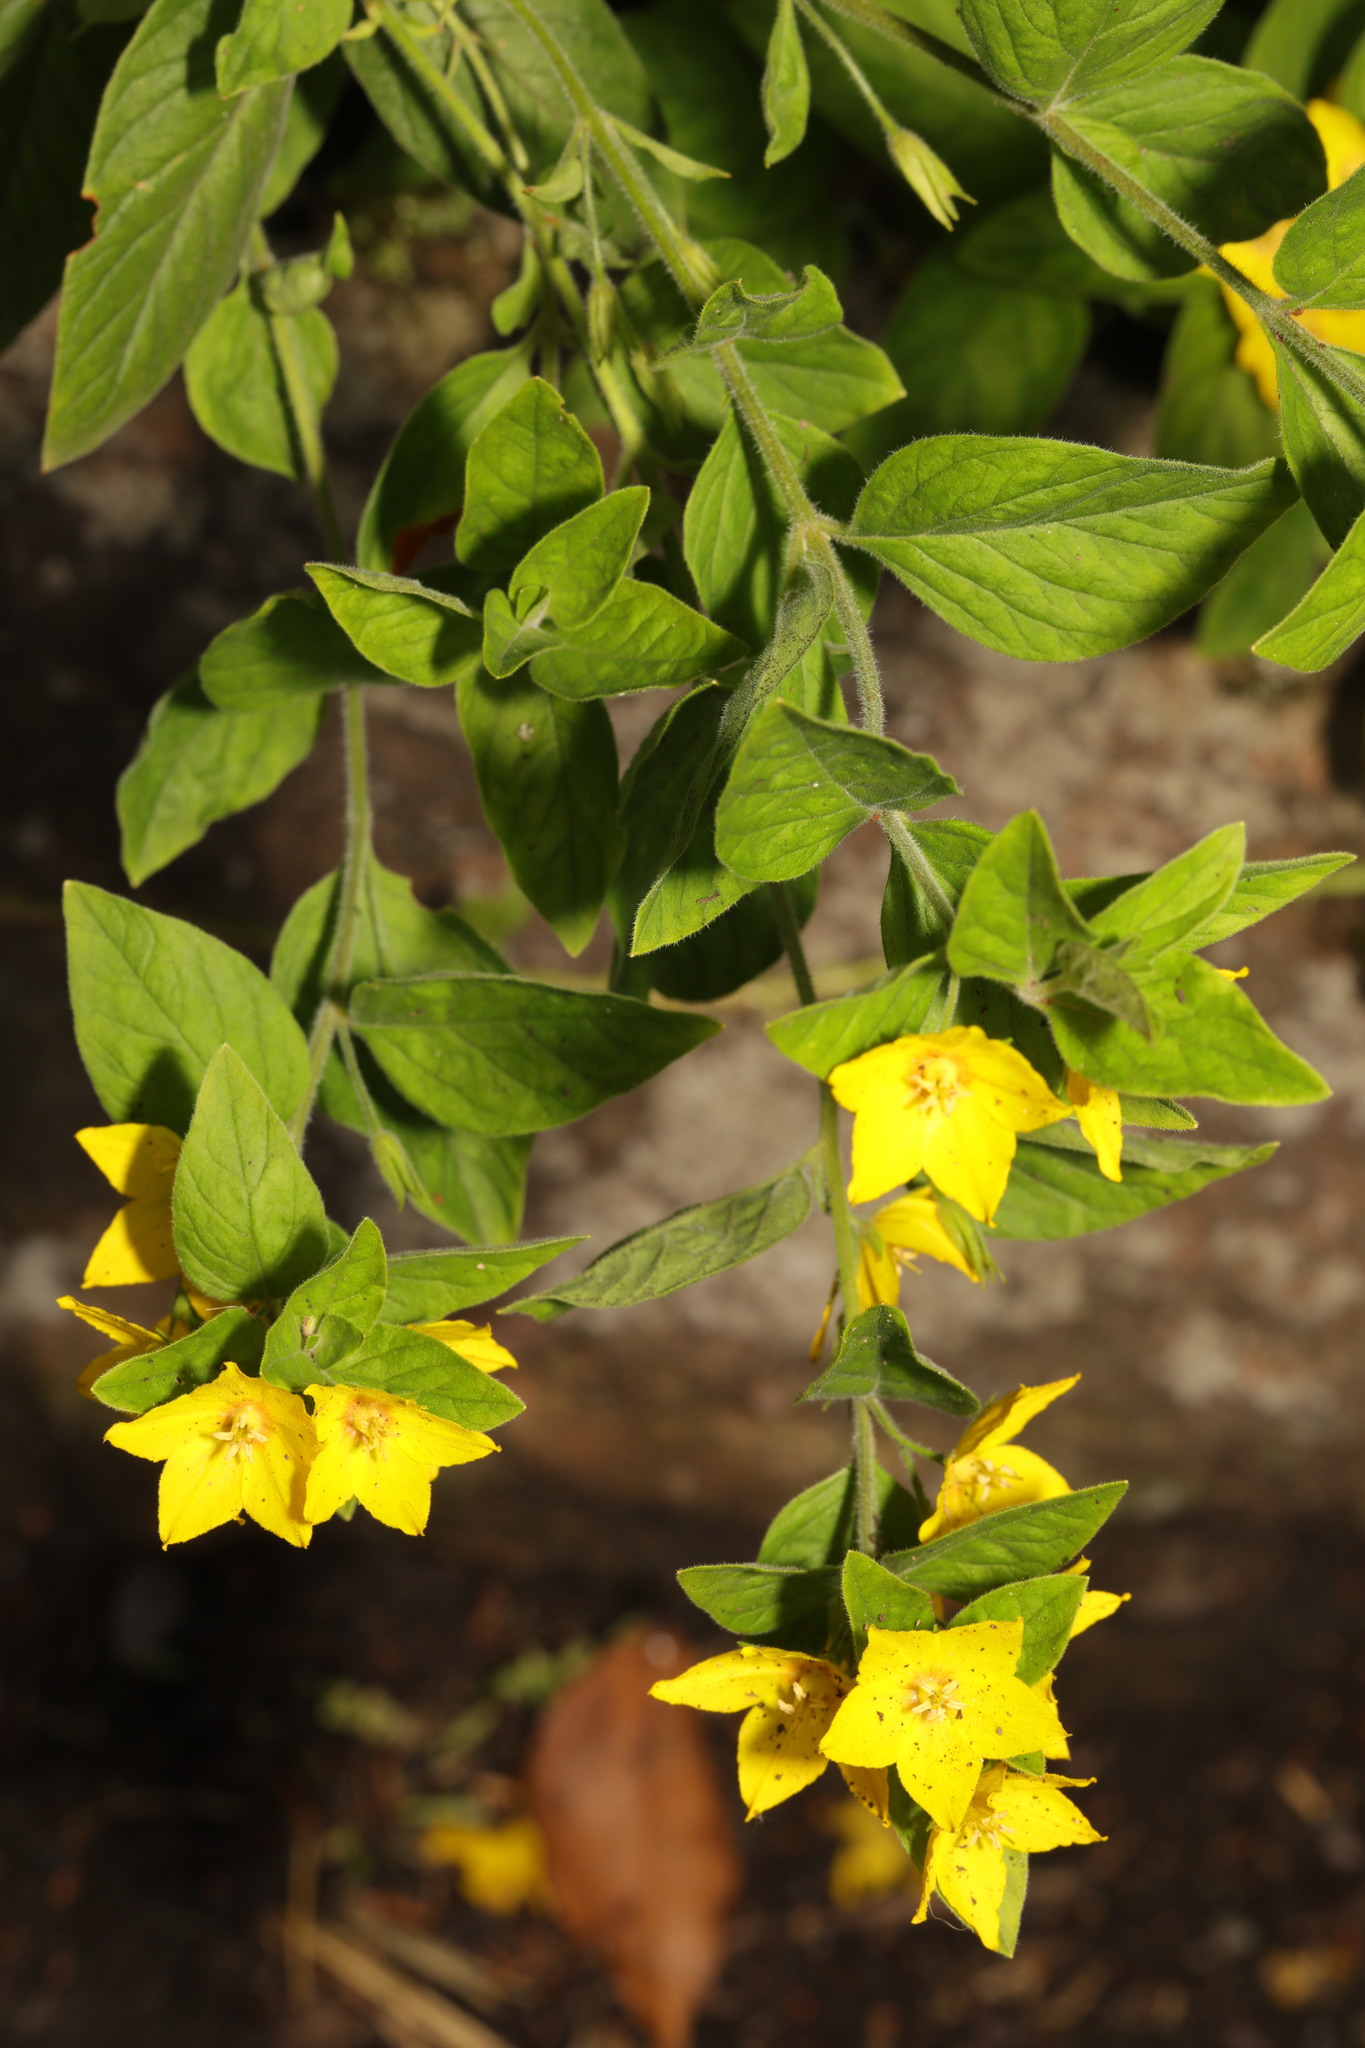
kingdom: Plantae
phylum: Tracheophyta
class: Magnoliopsida
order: Ericales
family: Primulaceae
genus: Lysimachia
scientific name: Lysimachia punctata
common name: Dotted loosestrife
